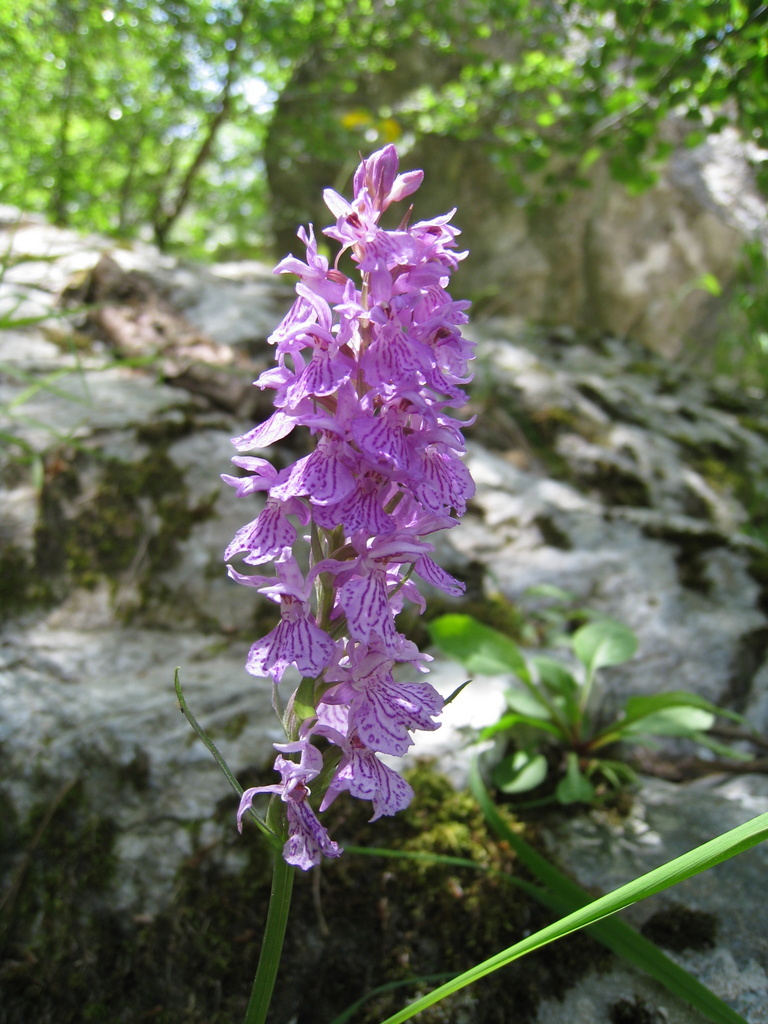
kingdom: Plantae
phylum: Tracheophyta
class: Liliopsida
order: Asparagales
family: Orchidaceae
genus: Dactylorhiza
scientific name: Dactylorhiza maculata
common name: Heath spotted-orchid
